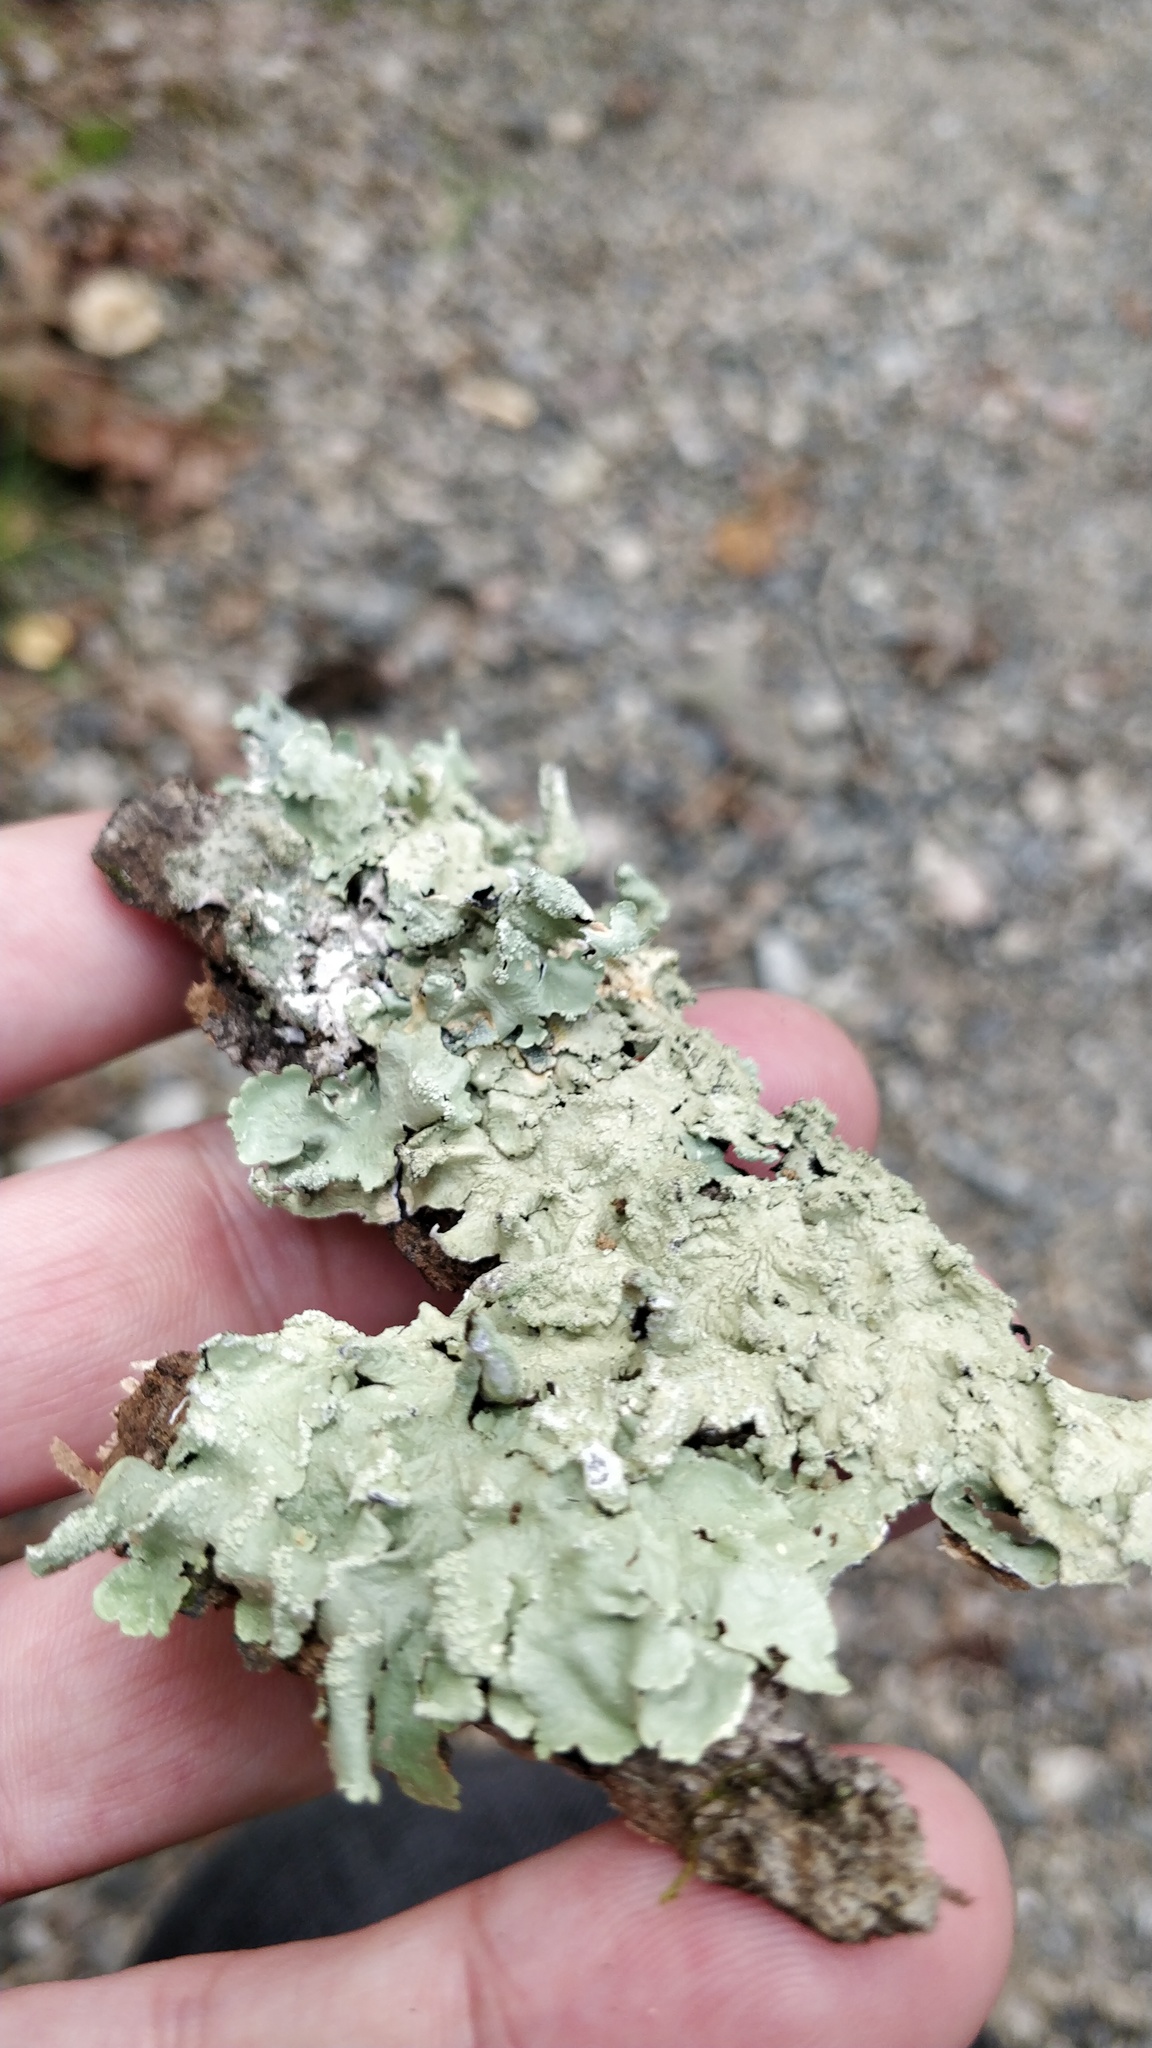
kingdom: Fungi
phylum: Ascomycota
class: Lecanoromycetes
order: Lecanorales
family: Parmeliaceae
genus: Flavoparmelia
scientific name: Flavoparmelia caperata
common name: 40-mile per hour lichen
